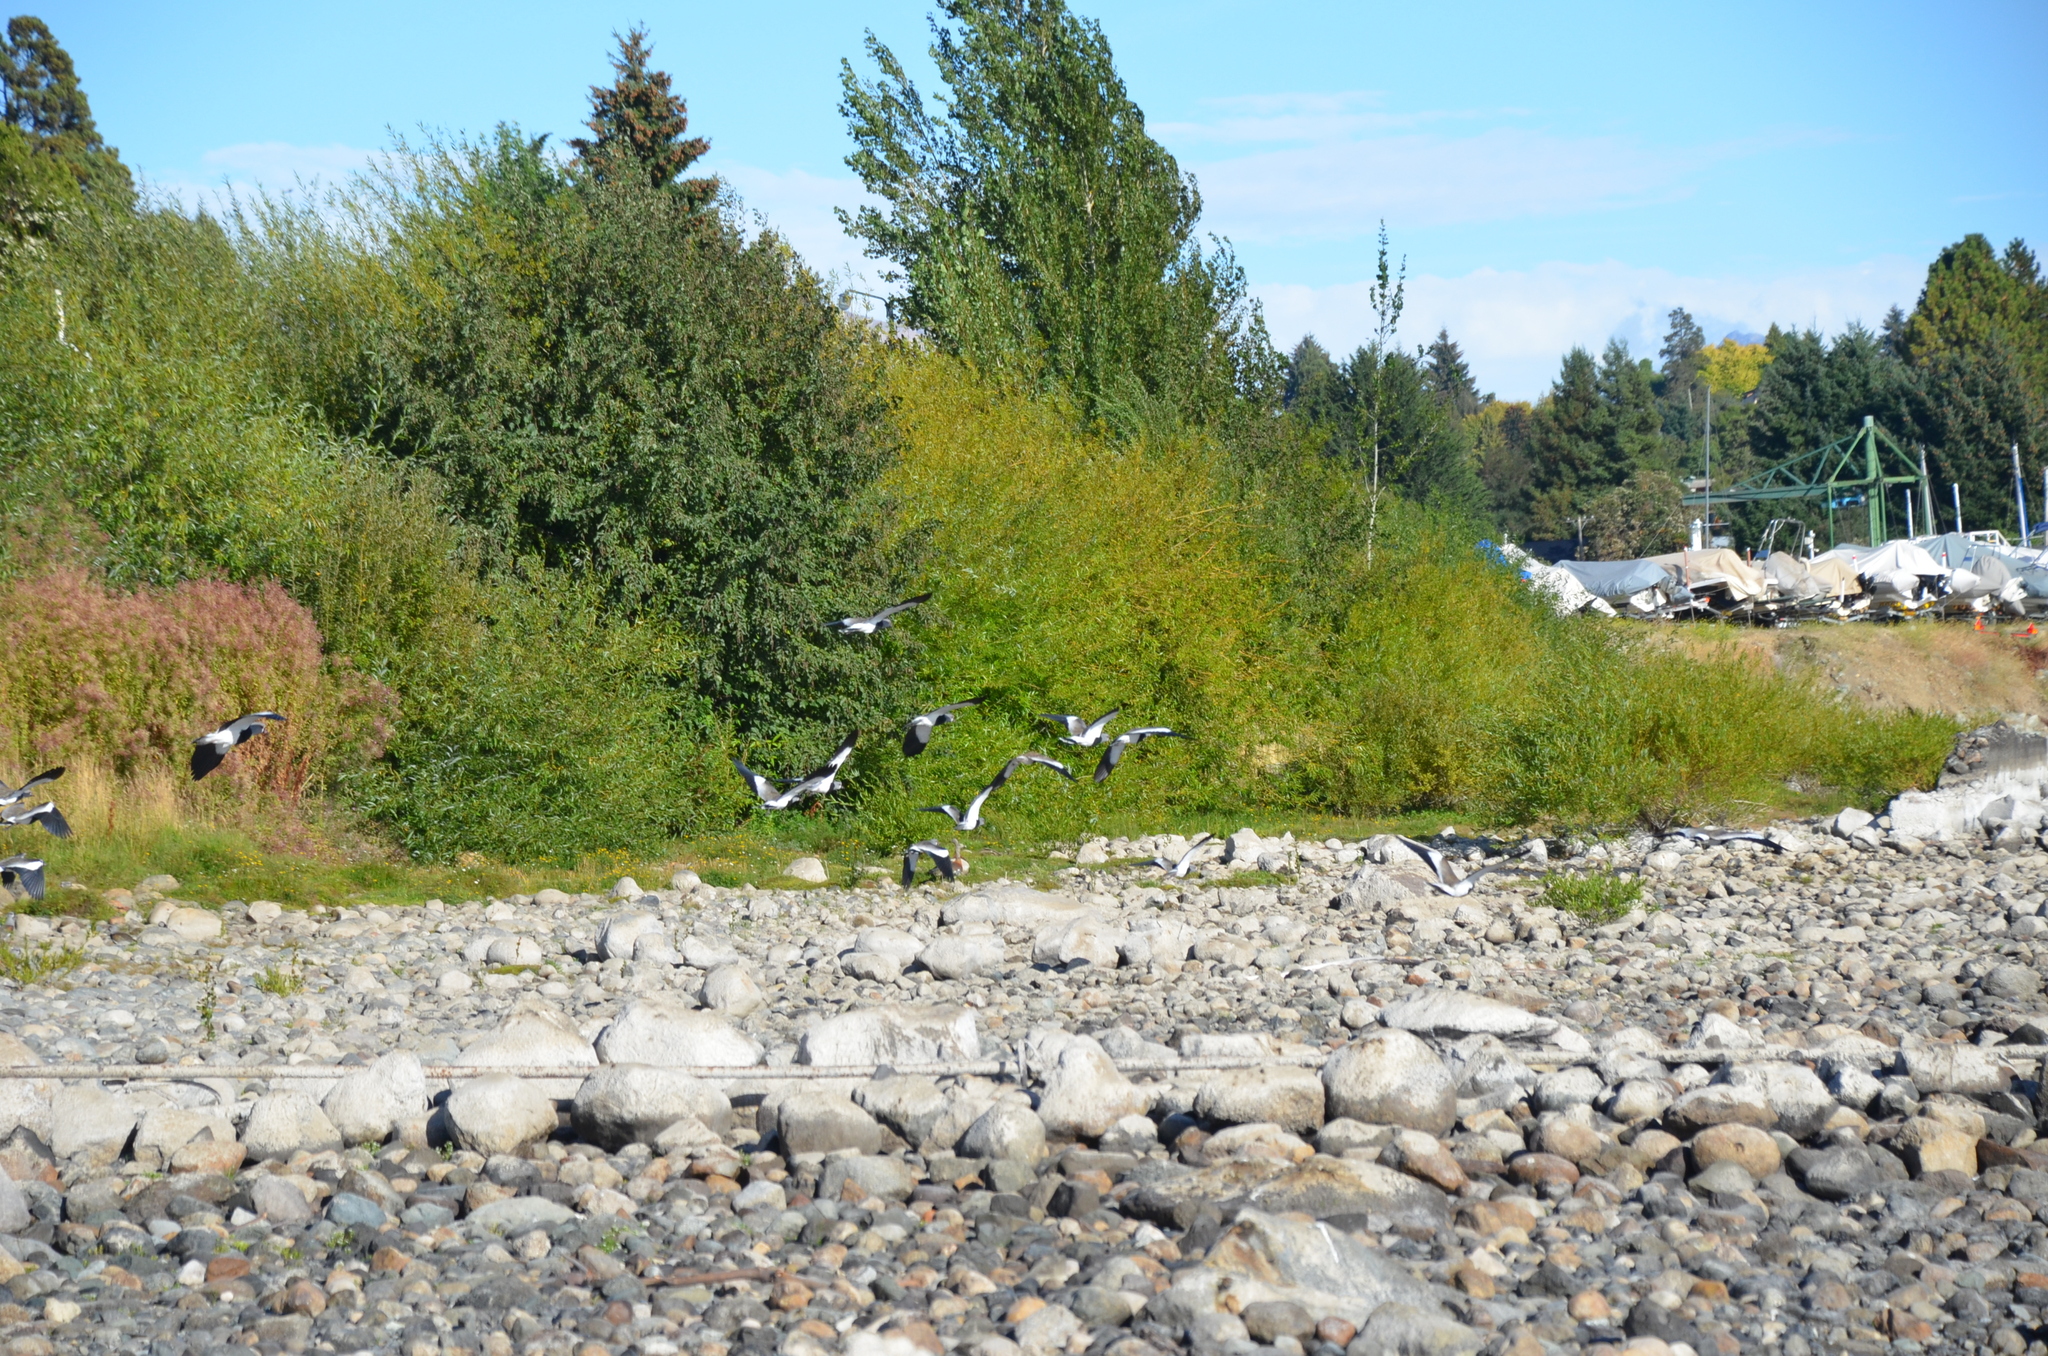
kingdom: Animalia
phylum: Chordata
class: Aves
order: Charadriiformes
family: Charadriidae
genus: Vanellus
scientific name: Vanellus chilensis
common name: Southern lapwing
